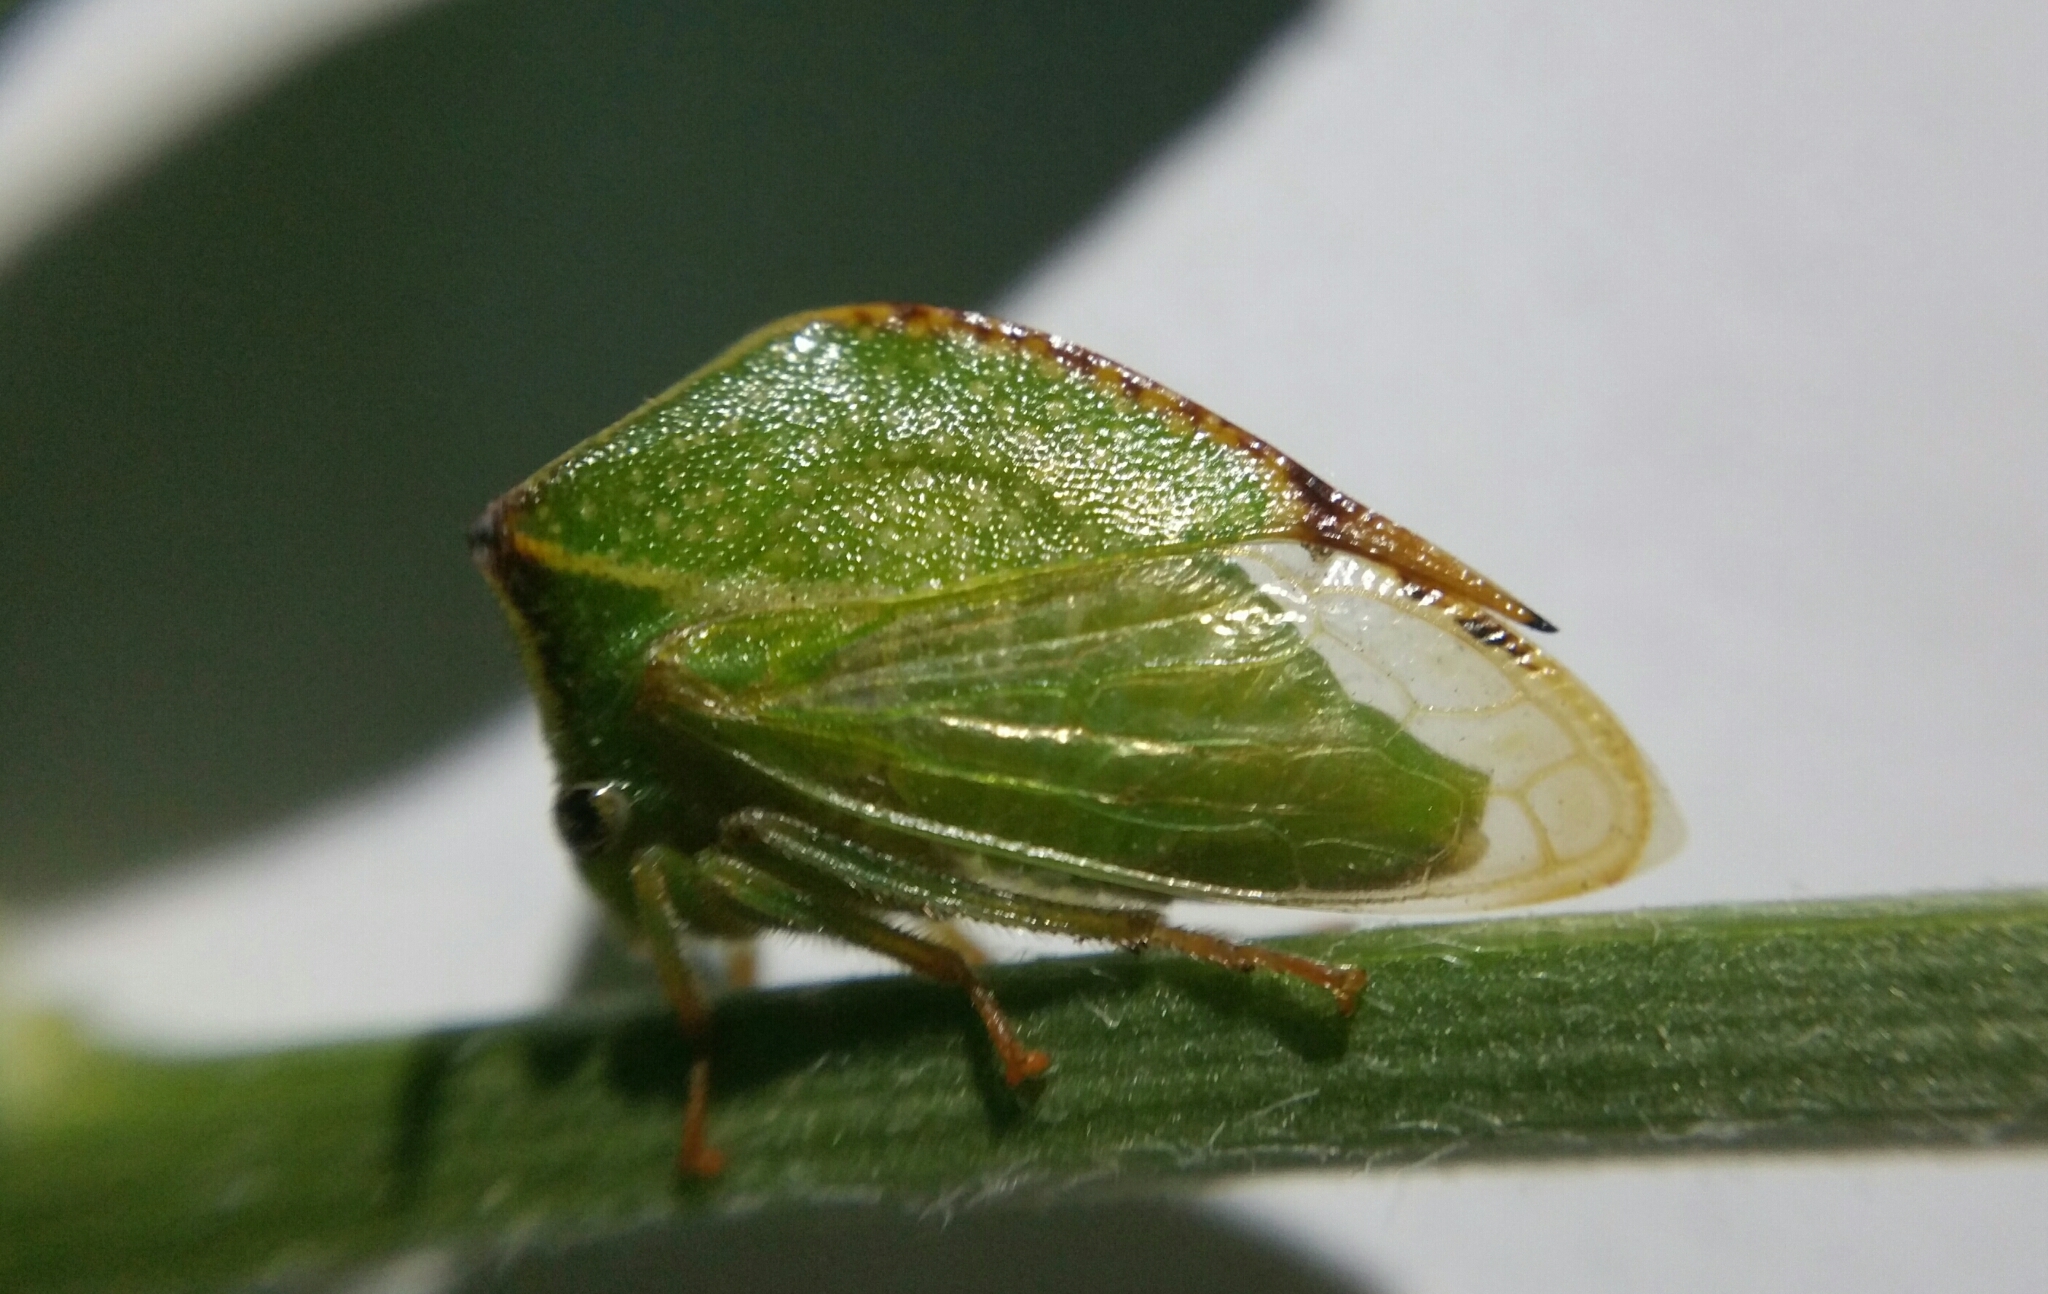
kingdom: Animalia
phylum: Arthropoda
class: Insecta
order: Hemiptera
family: Membracidae
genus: Stictocephala
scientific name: Stictocephala bisonia
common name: American buffalo treehopper
